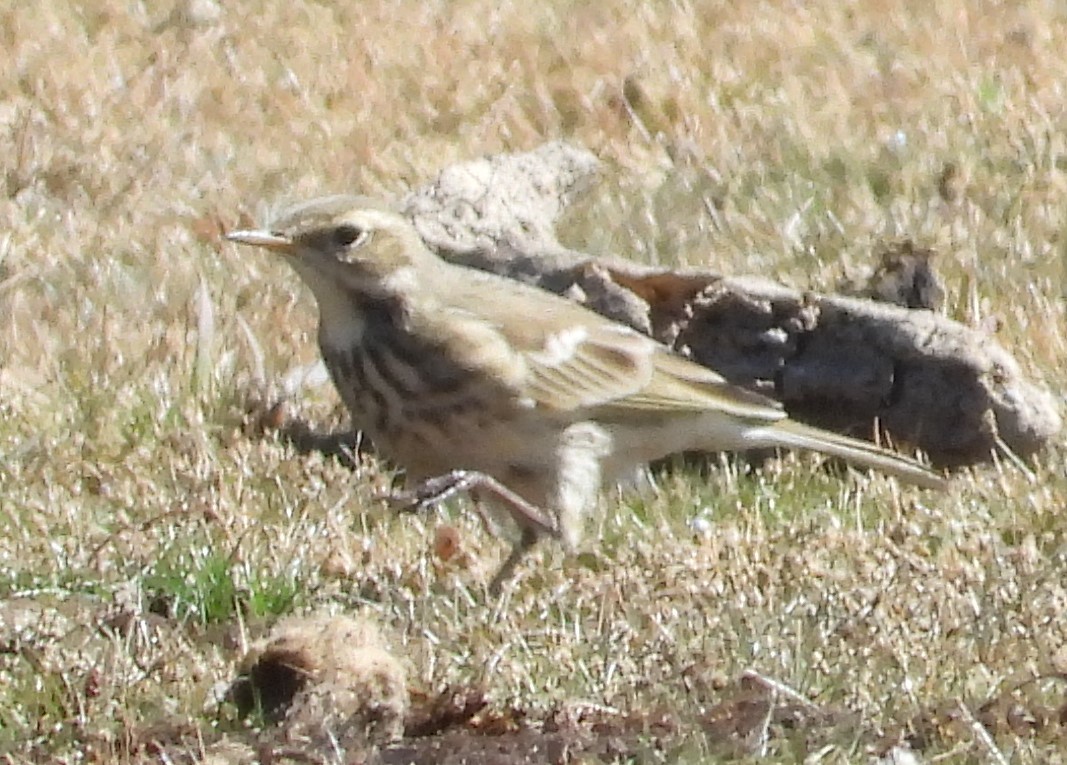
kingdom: Animalia
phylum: Chordata
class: Aves
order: Passeriformes
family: Motacillidae
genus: Anthus
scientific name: Anthus rubescens
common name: Buff-bellied pipit
